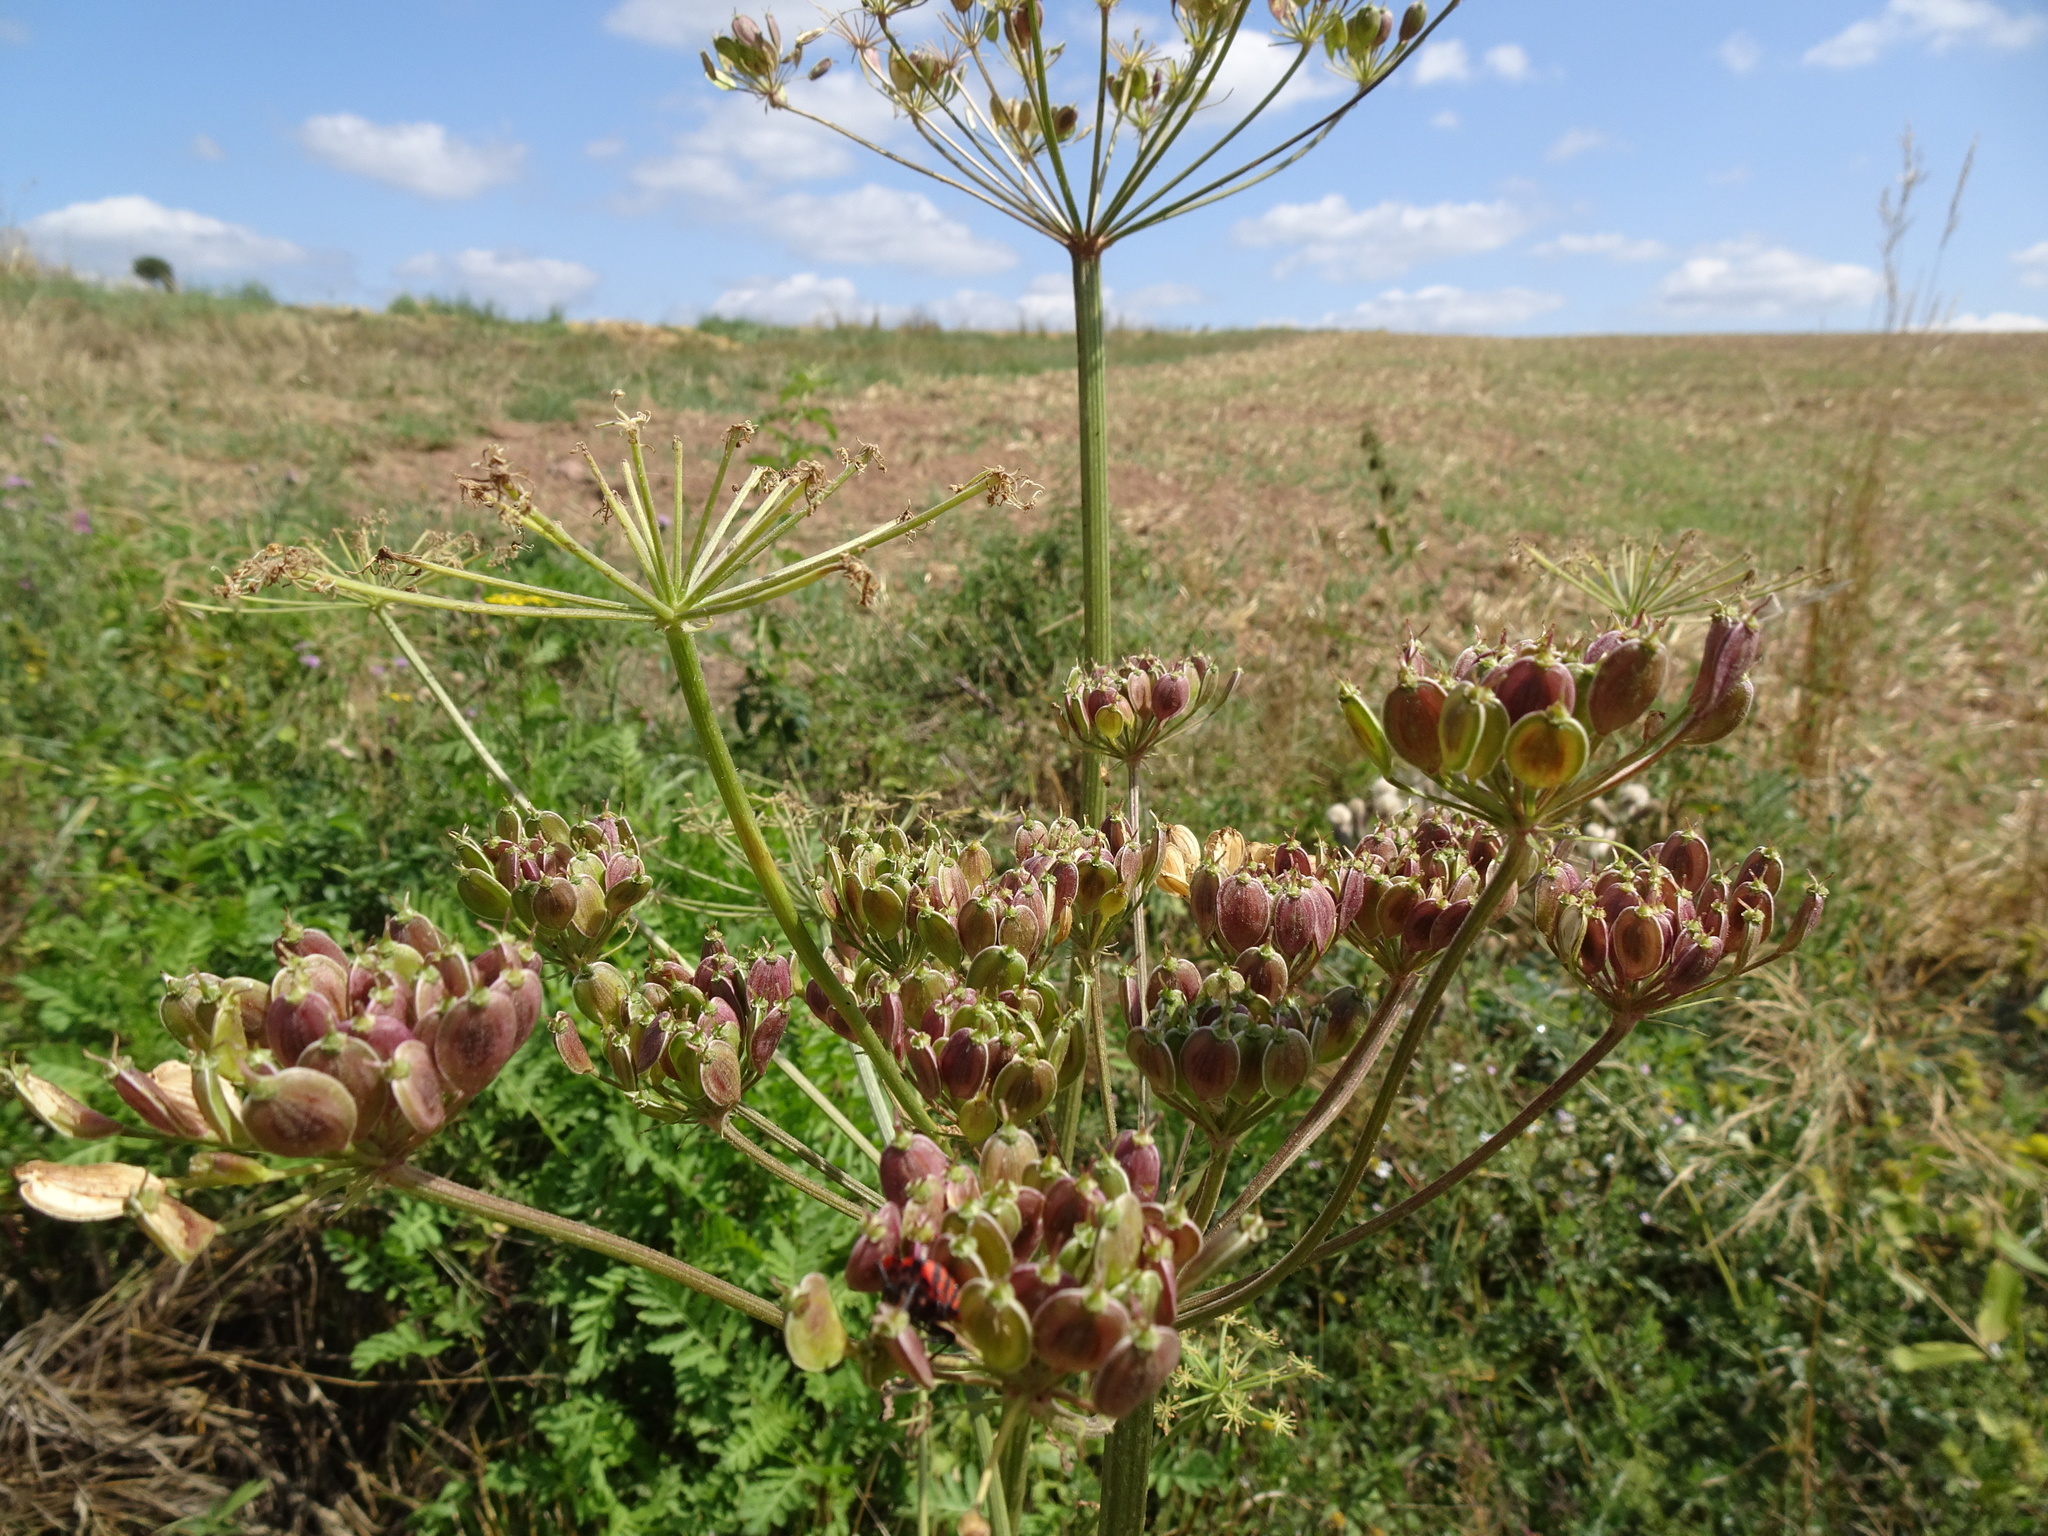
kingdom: Plantae
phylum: Tracheophyta
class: Magnoliopsida
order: Apiales
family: Apiaceae
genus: Heracleum
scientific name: Heracleum sphondylium
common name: Hogweed
